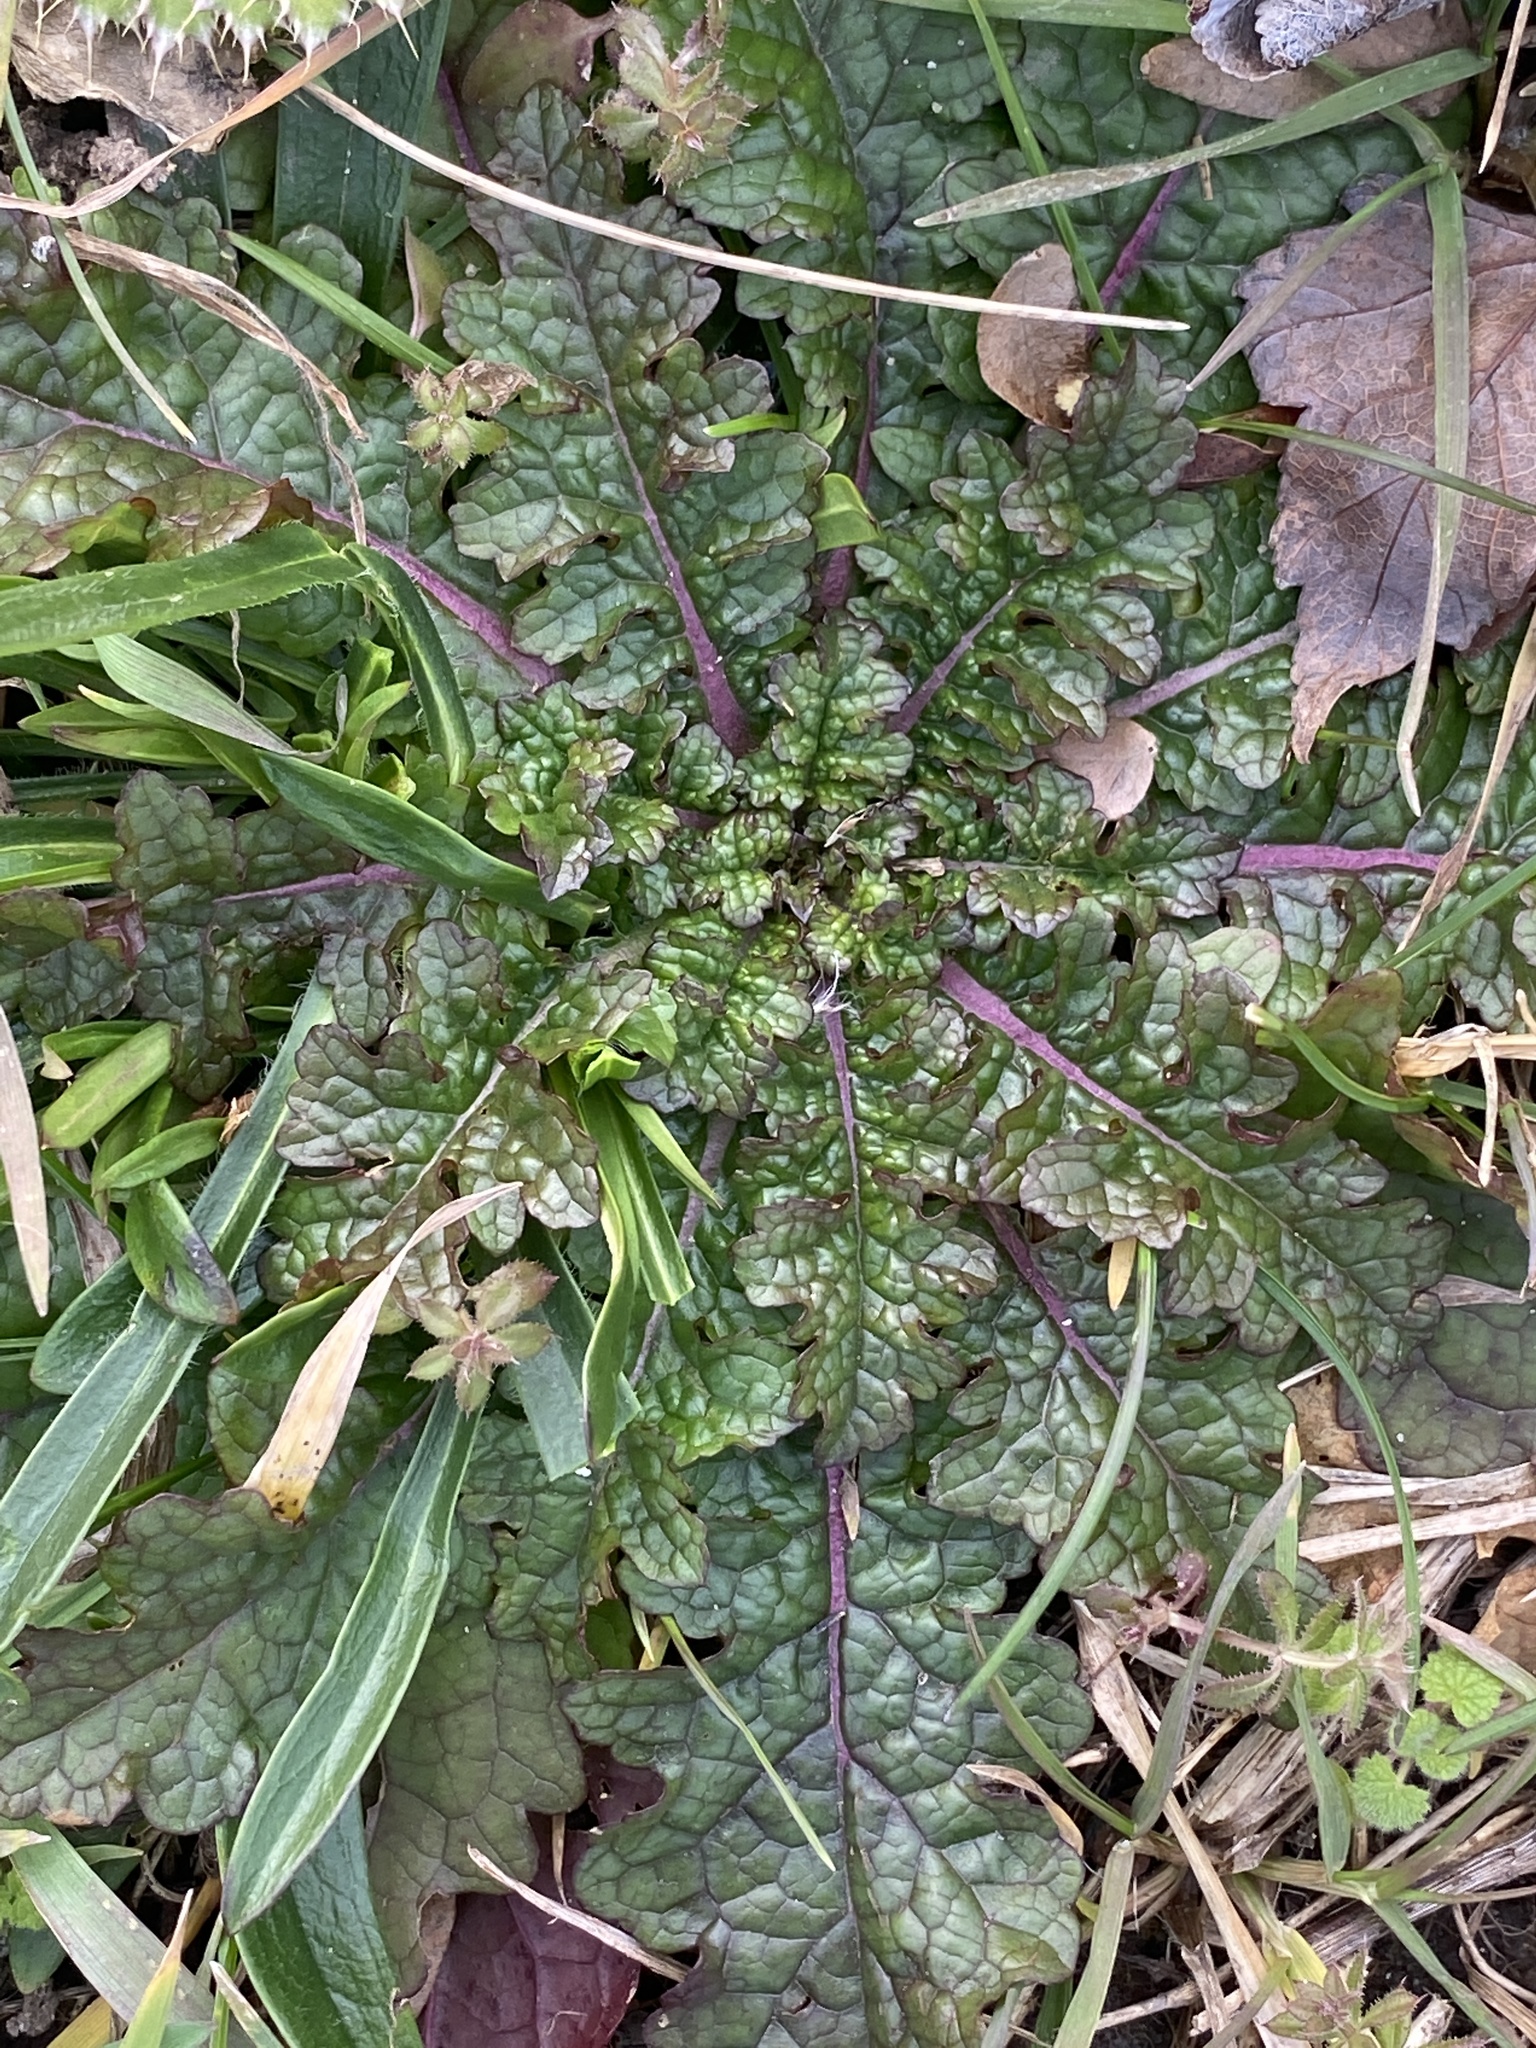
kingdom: Plantae
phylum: Tracheophyta
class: Magnoliopsida
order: Lamiales
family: Scrophulariaceae
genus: Verbascum
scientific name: Verbascum blattaria
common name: Moth mullein
